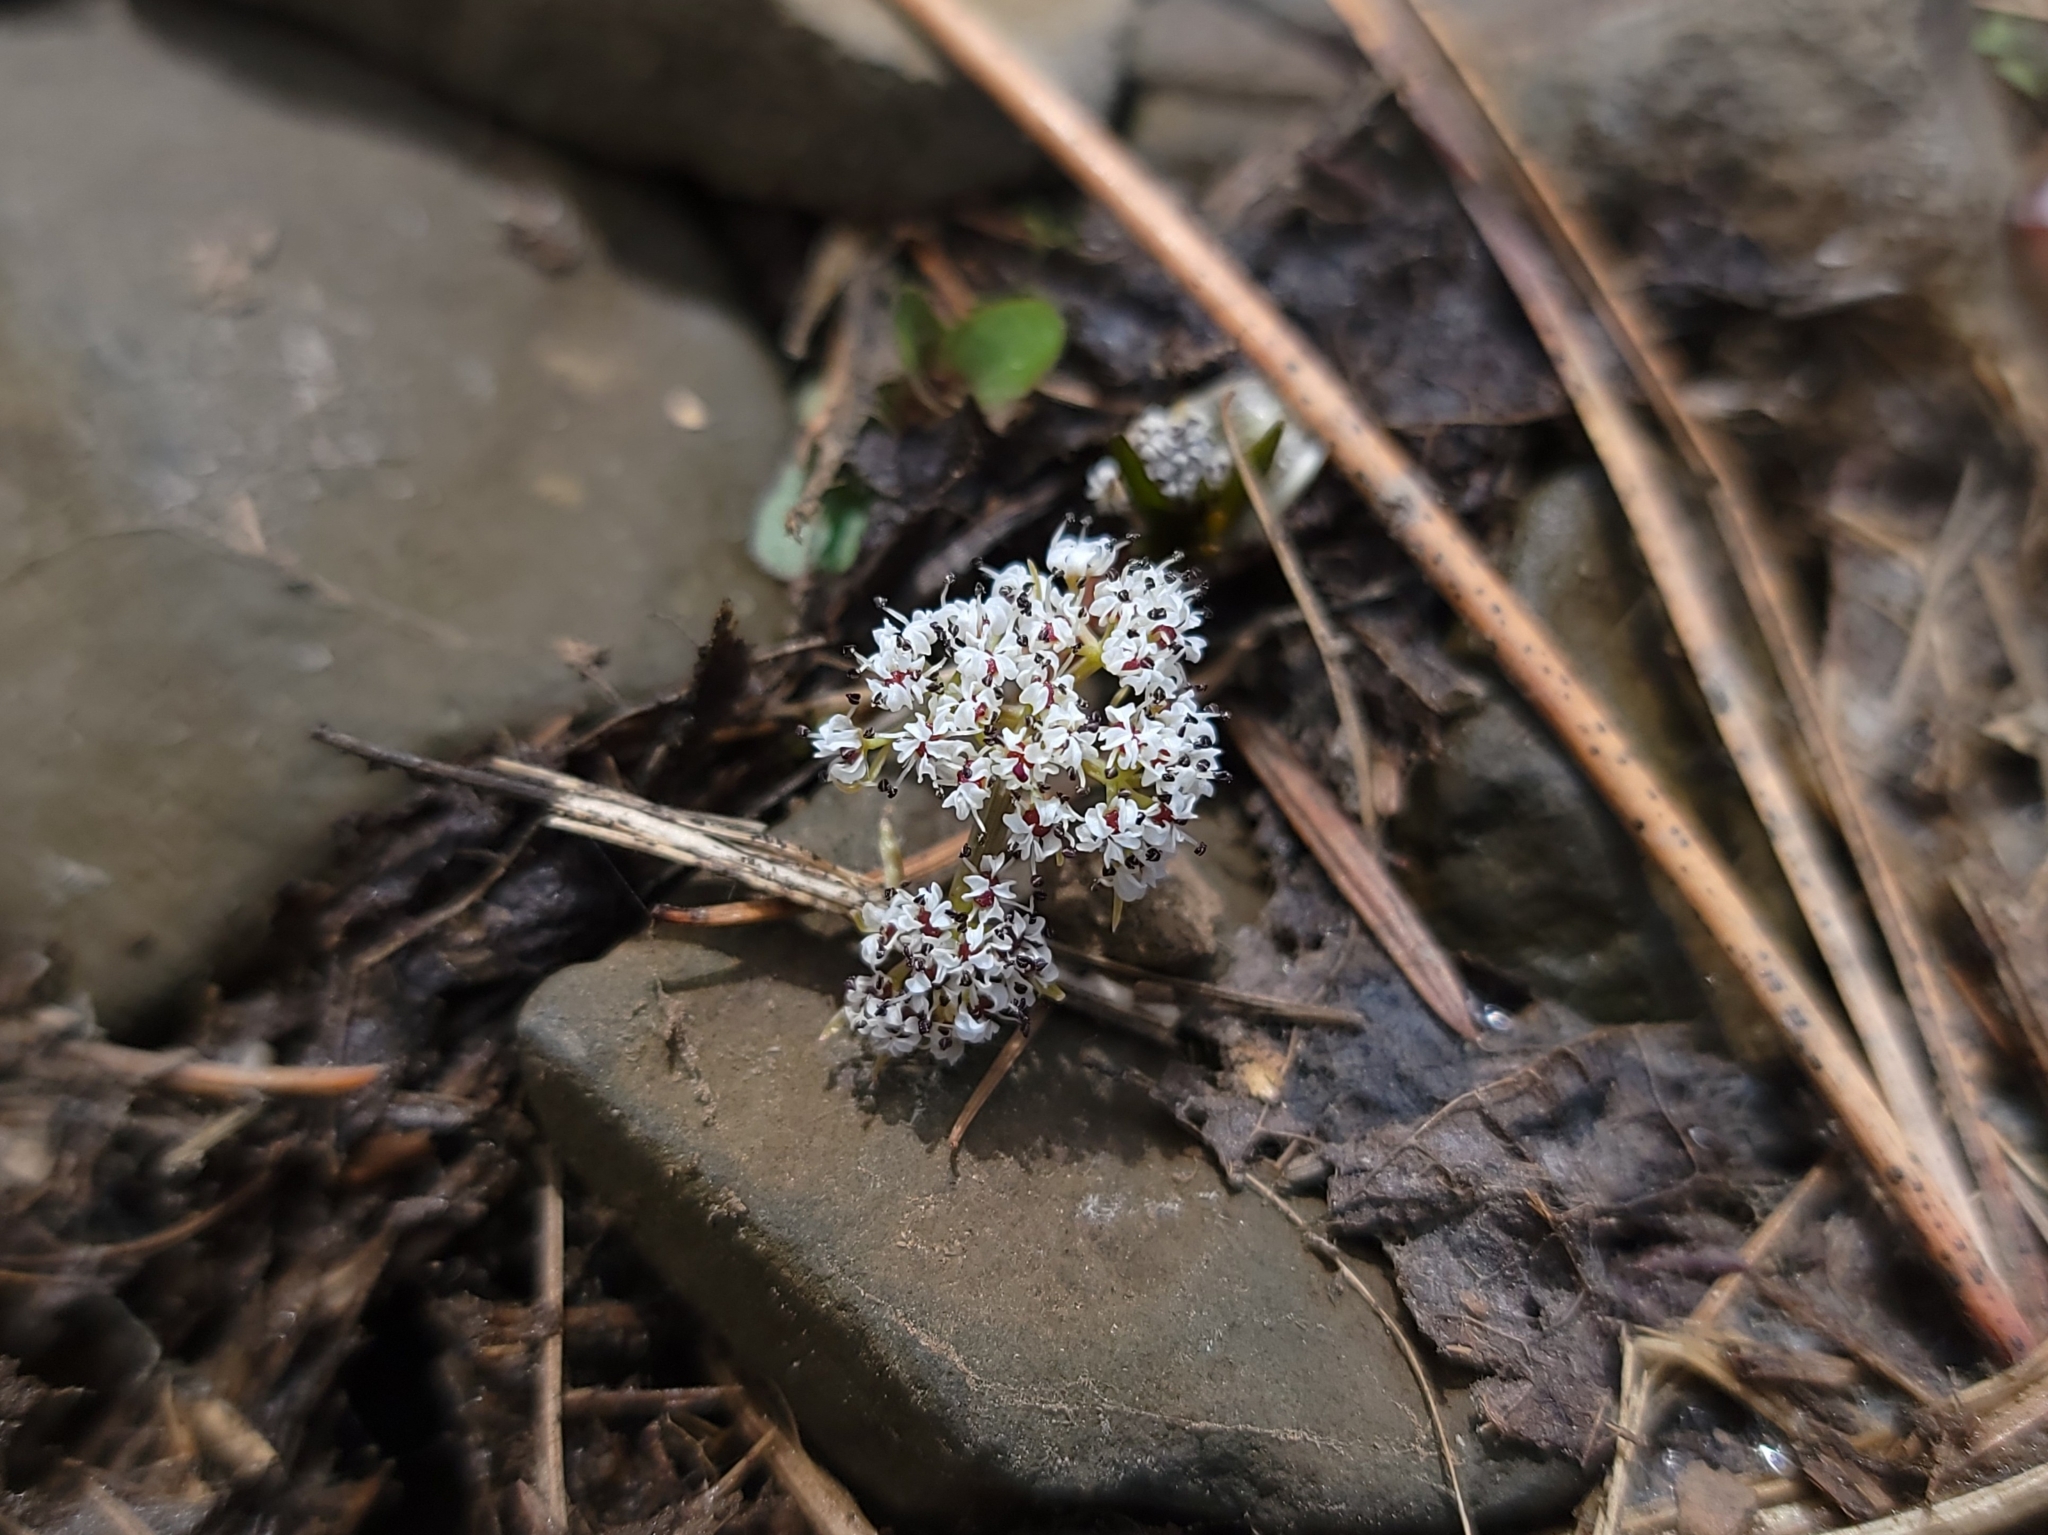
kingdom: Plantae
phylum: Tracheophyta
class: Magnoliopsida
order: Apiales
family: Apiaceae
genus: Lomatium
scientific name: Lomatium linearifolium
